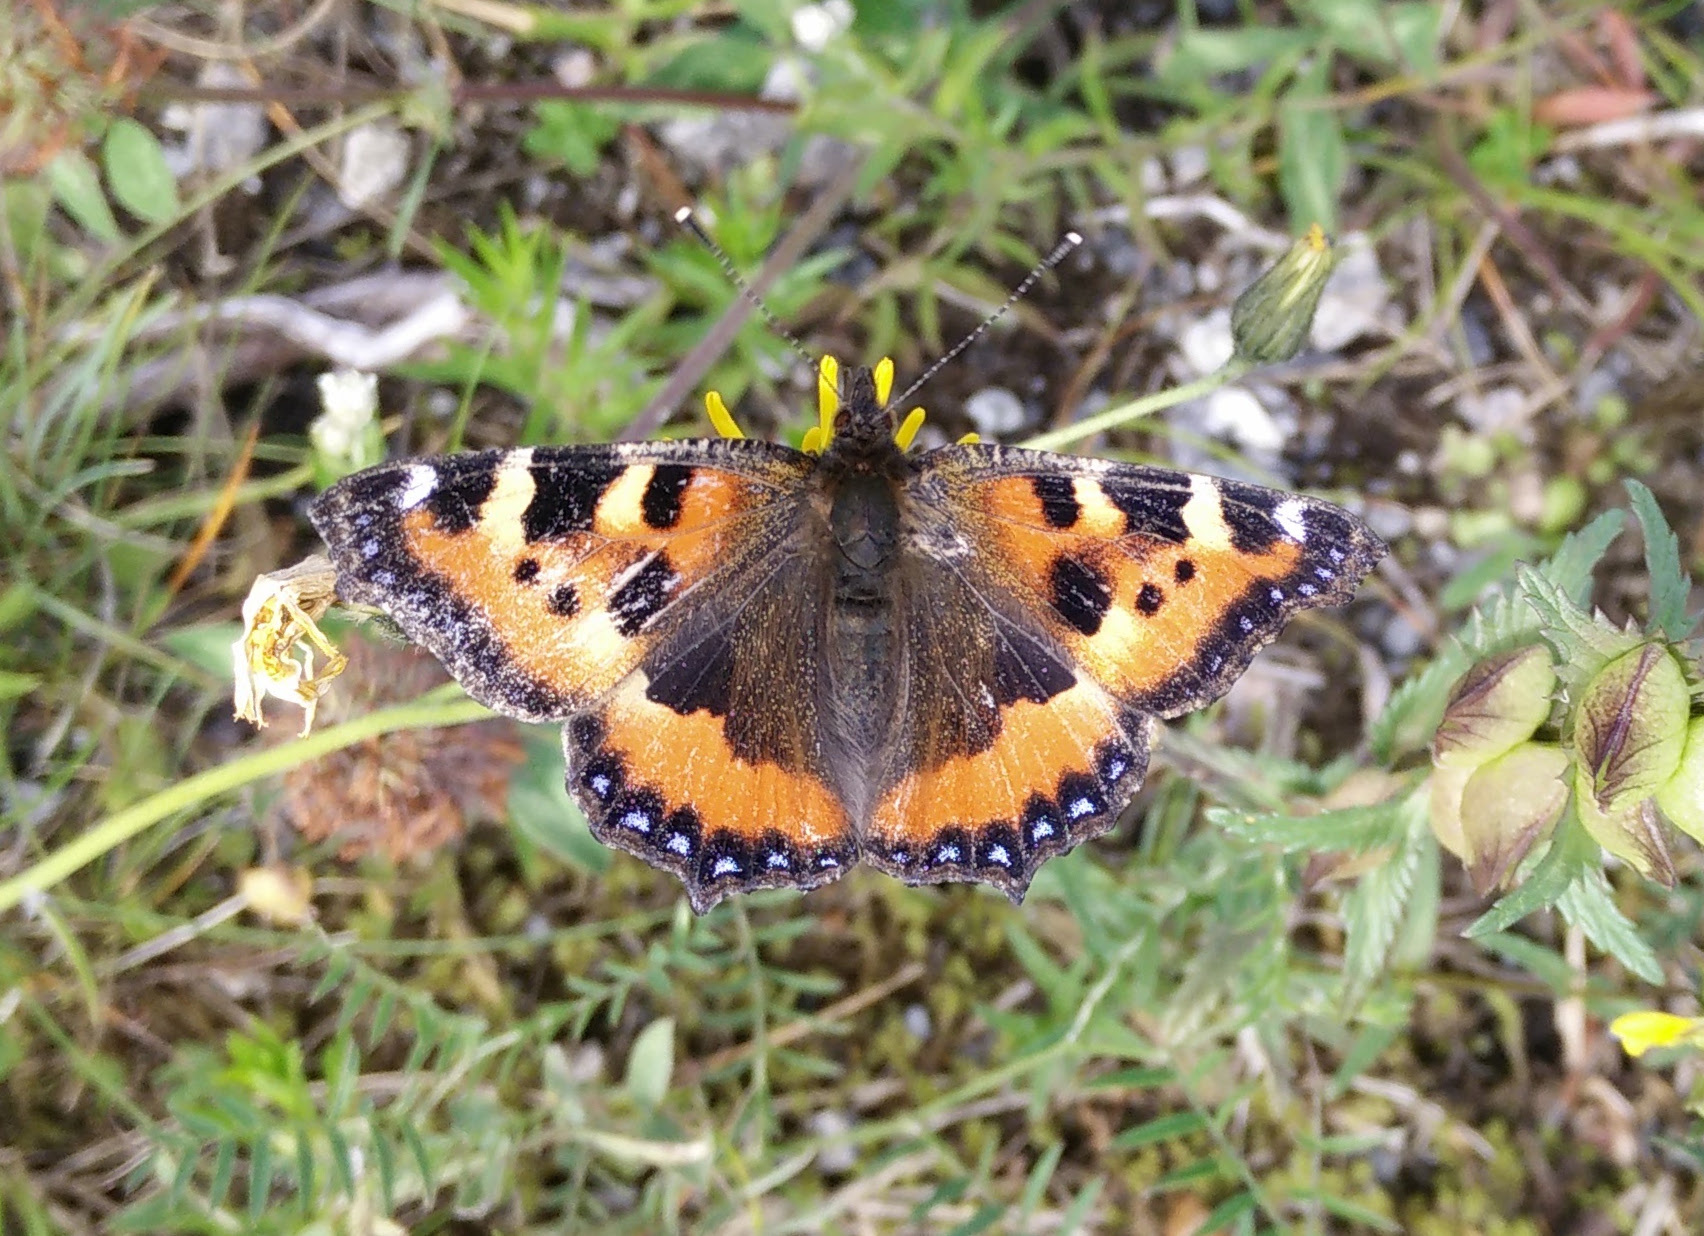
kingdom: Animalia
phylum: Arthropoda
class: Insecta
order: Lepidoptera
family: Nymphalidae
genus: Aglais
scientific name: Aglais urticae
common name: Small tortoiseshell
